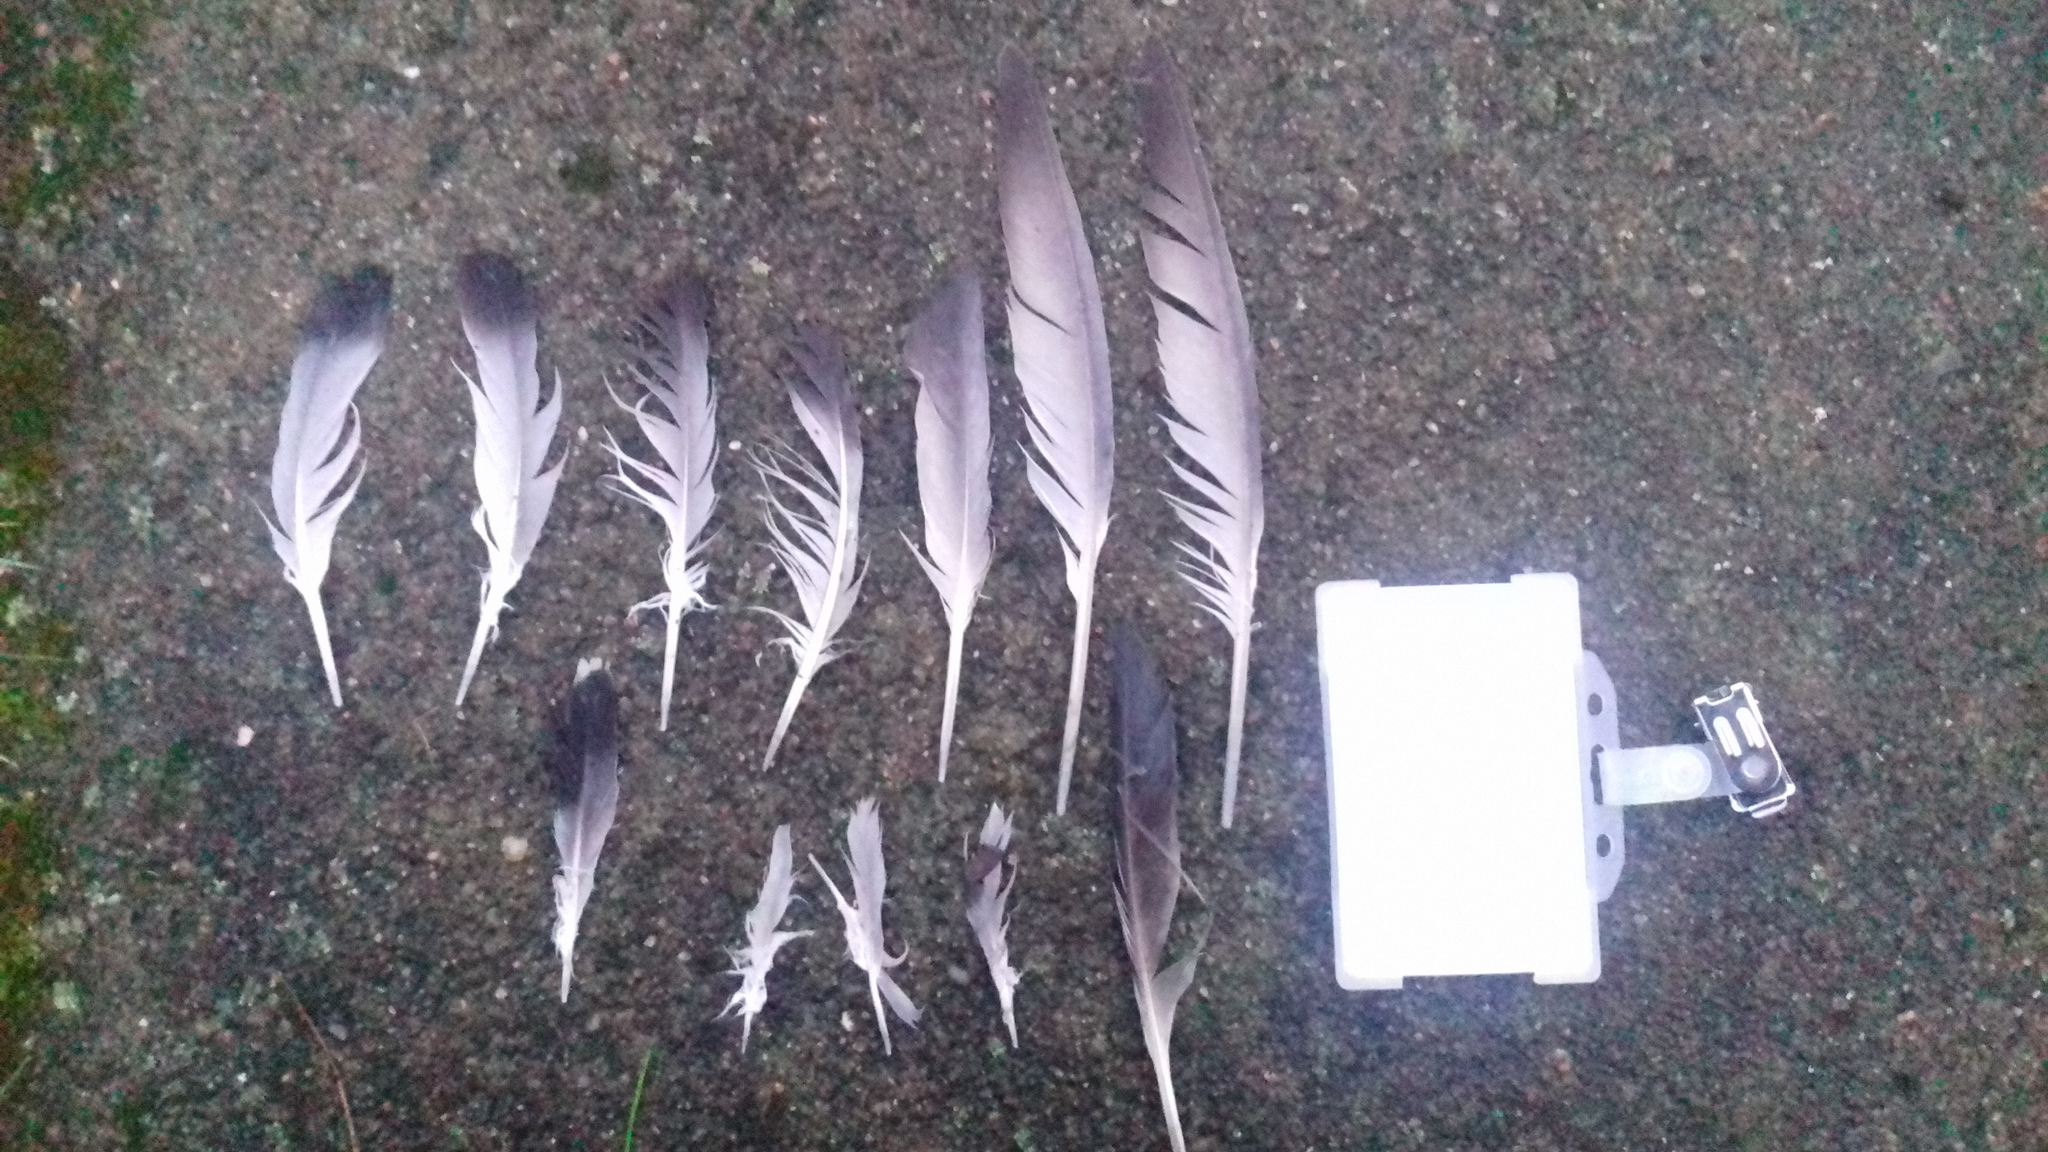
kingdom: Animalia
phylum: Chordata
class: Aves
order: Columbiformes
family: Columbidae
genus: Columba
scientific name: Columba livia
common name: Rock pigeon
